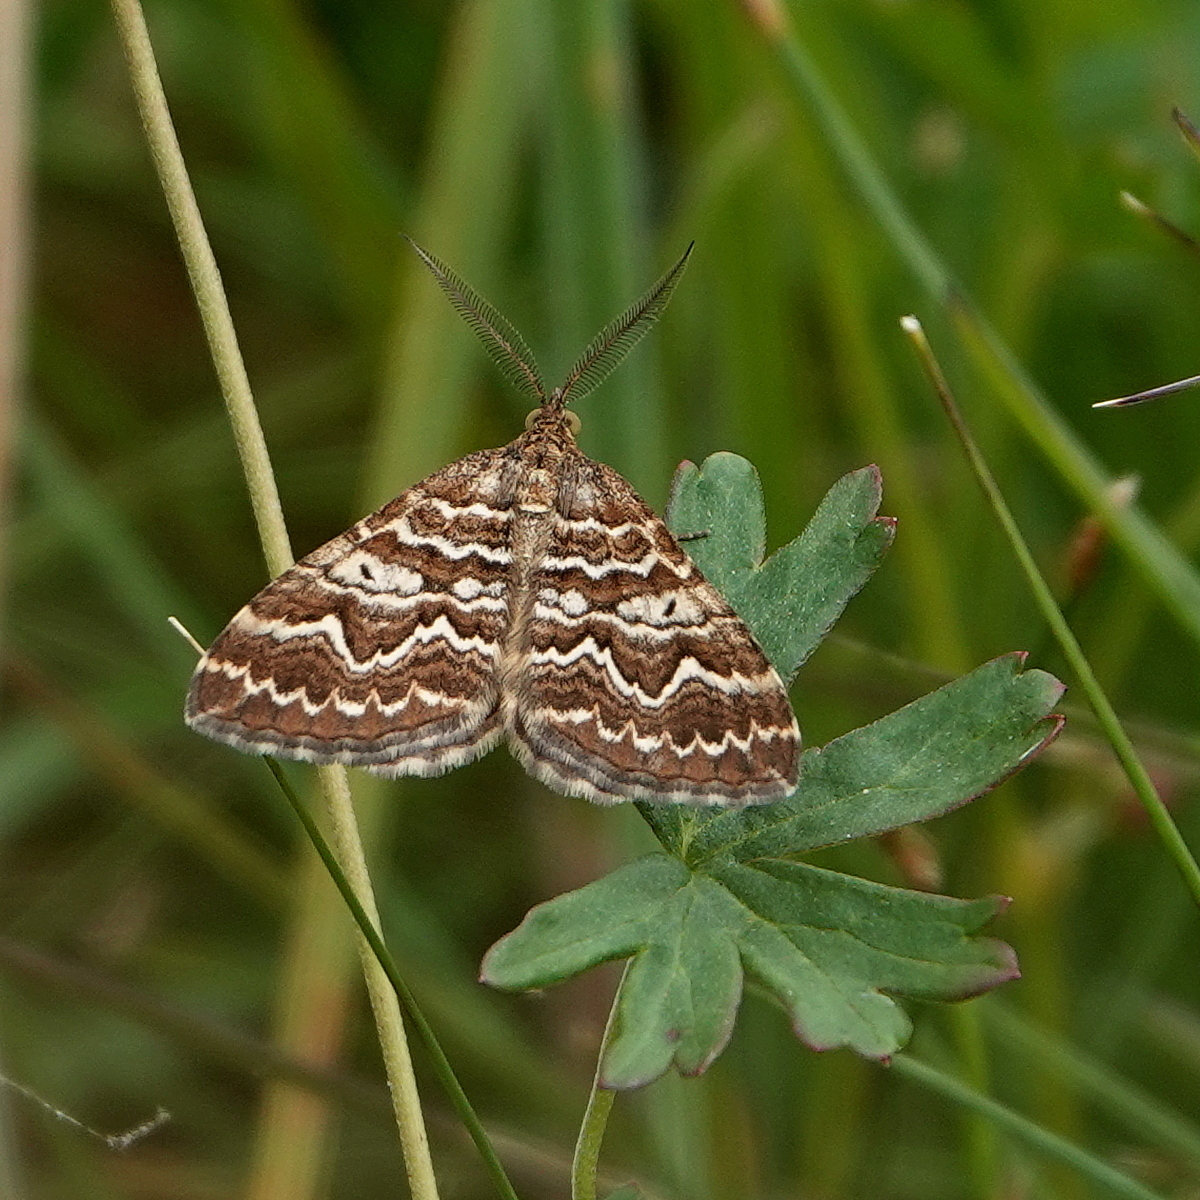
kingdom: Animalia
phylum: Arthropoda
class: Insecta
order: Lepidoptera
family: Geometridae
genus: Chrysolarentia
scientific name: Chrysolarentia heliacaria
